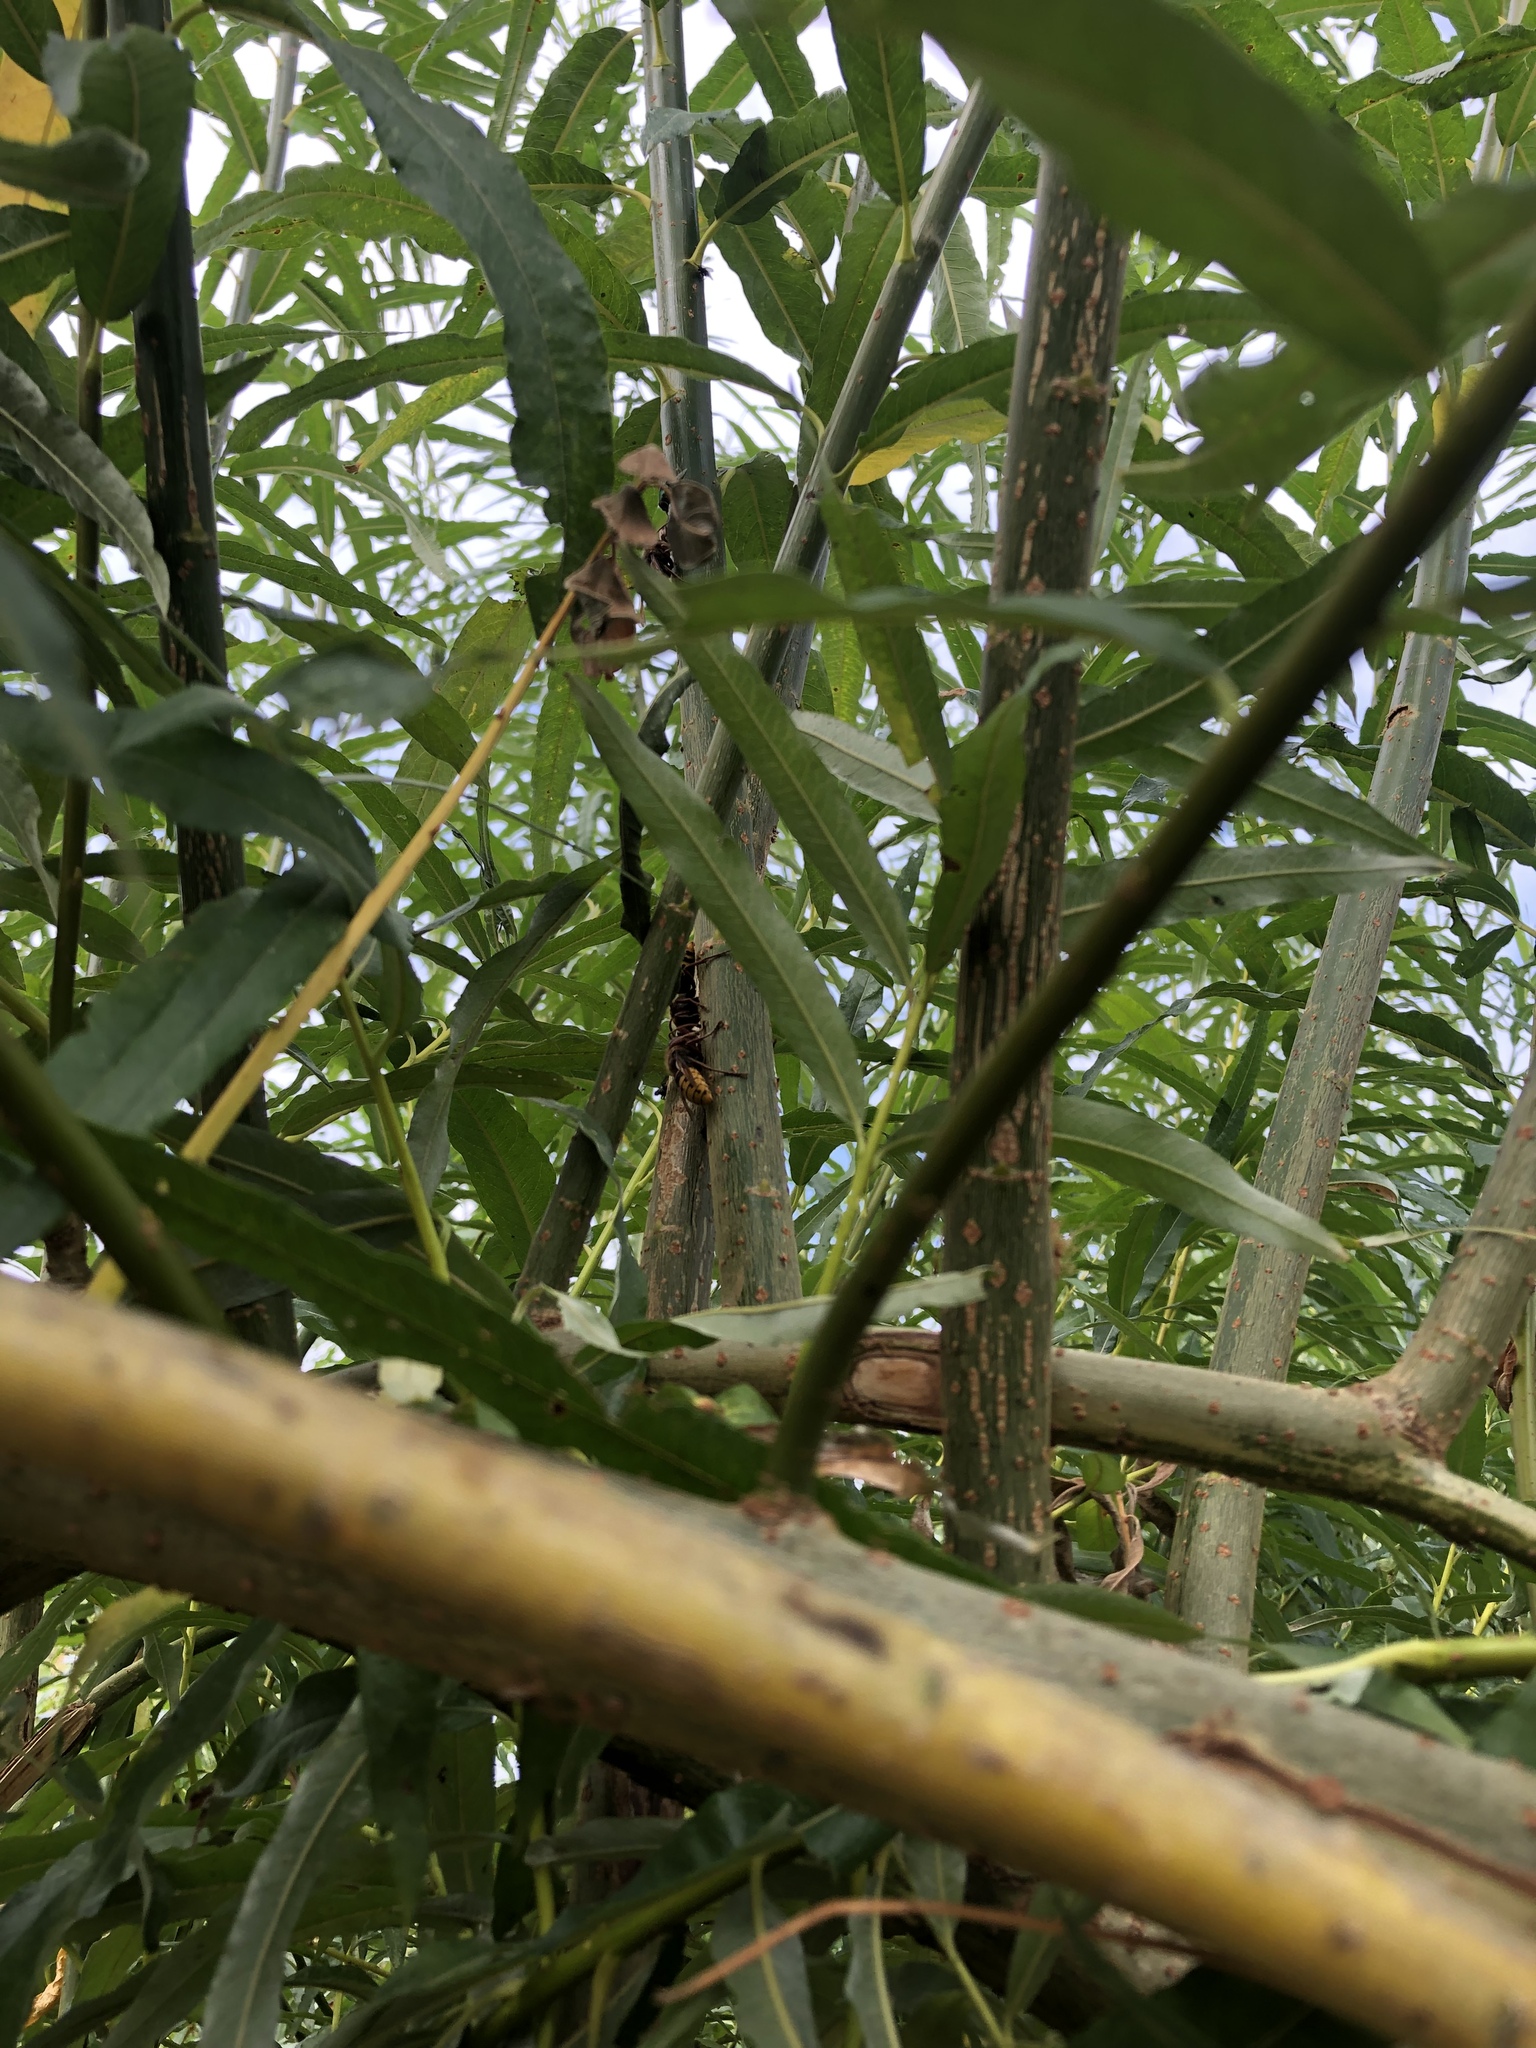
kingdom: Animalia
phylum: Arthropoda
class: Insecta
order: Hymenoptera
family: Vespidae
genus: Vespa
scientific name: Vespa crabro
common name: Hornet
